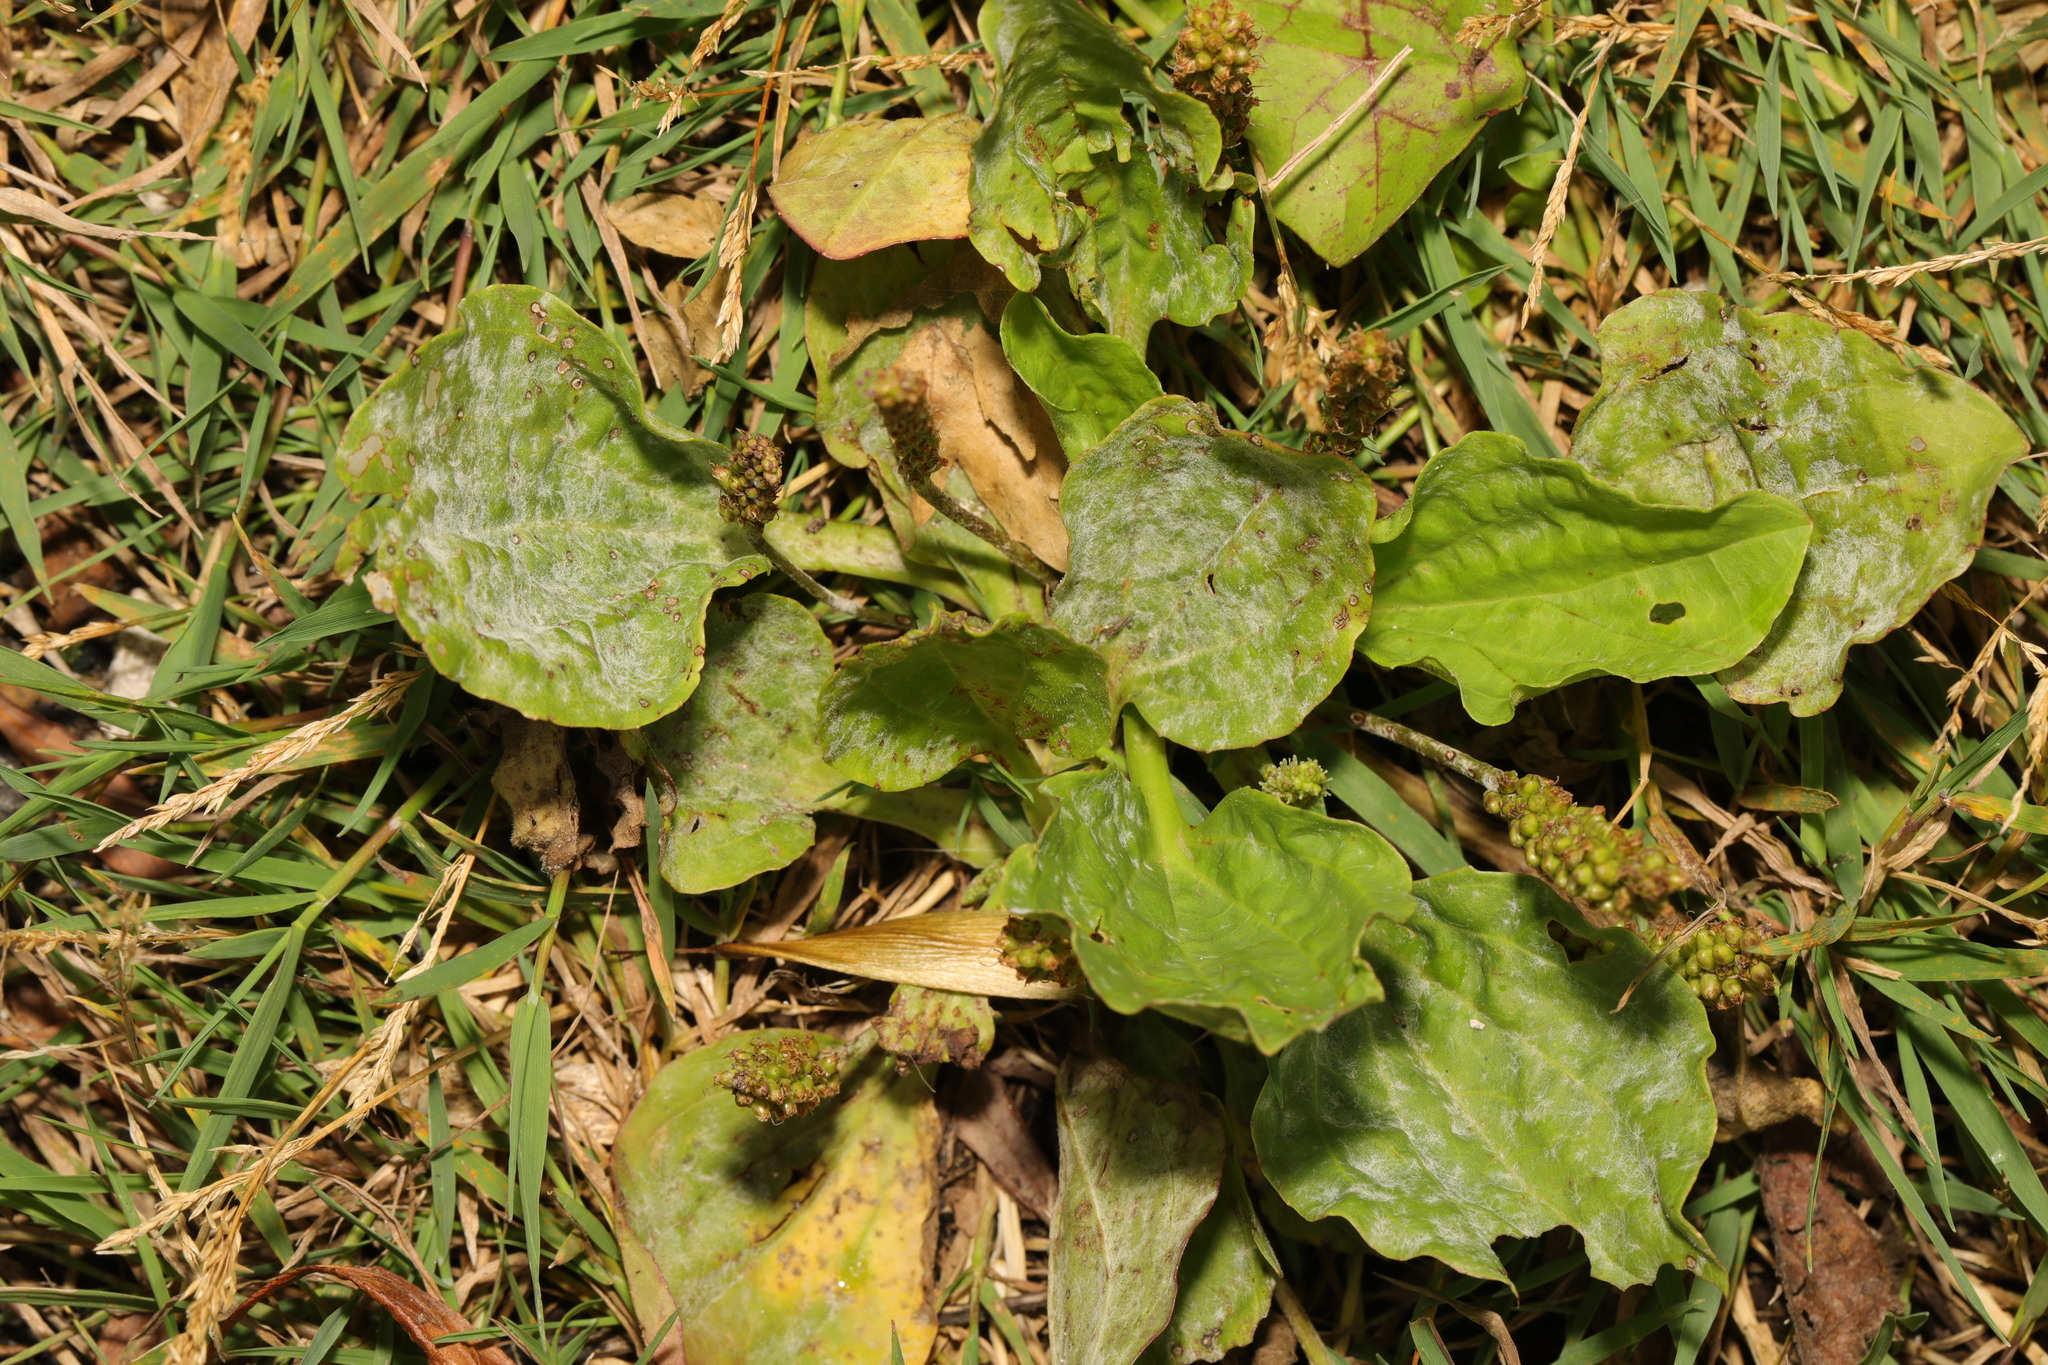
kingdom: Plantae
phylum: Tracheophyta
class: Magnoliopsida
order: Lamiales
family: Plantaginaceae
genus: Plantago
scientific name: Plantago major
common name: Common plantain
